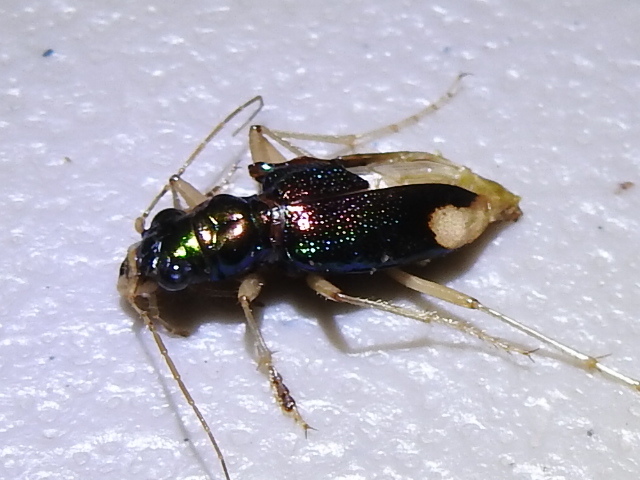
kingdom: Animalia
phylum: Arthropoda
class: Insecta
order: Coleoptera
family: Carabidae
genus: Tetracha
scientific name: Tetracha carolina
